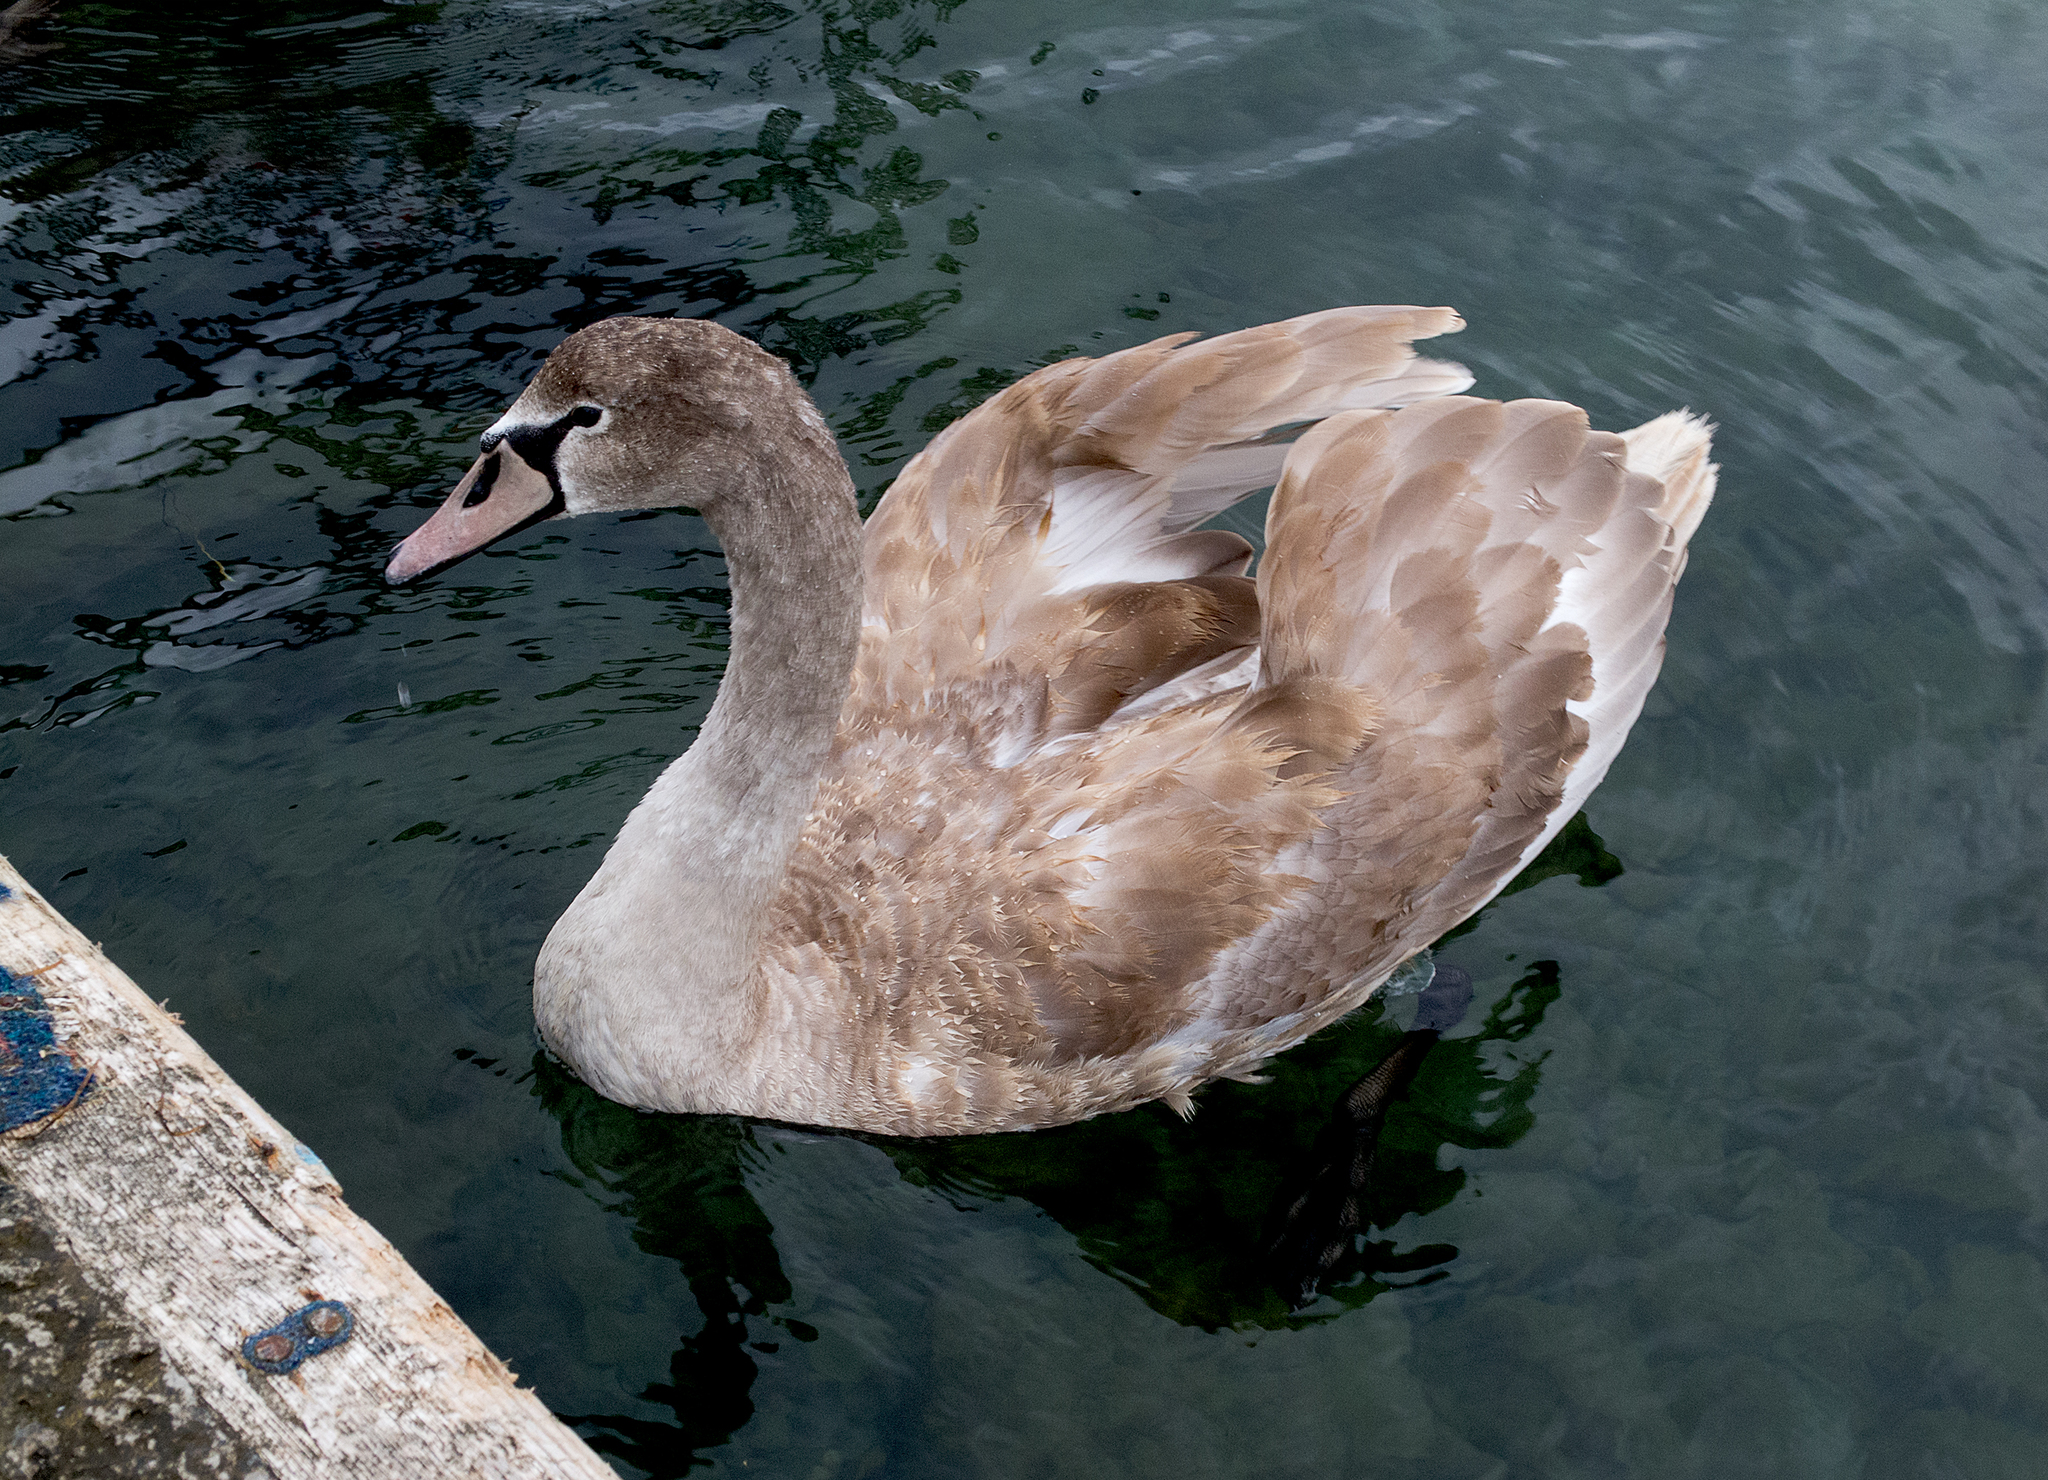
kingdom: Animalia
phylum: Chordata
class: Aves
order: Anseriformes
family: Anatidae
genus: Cygnus
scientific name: Cygnus olor
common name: Mute swan
